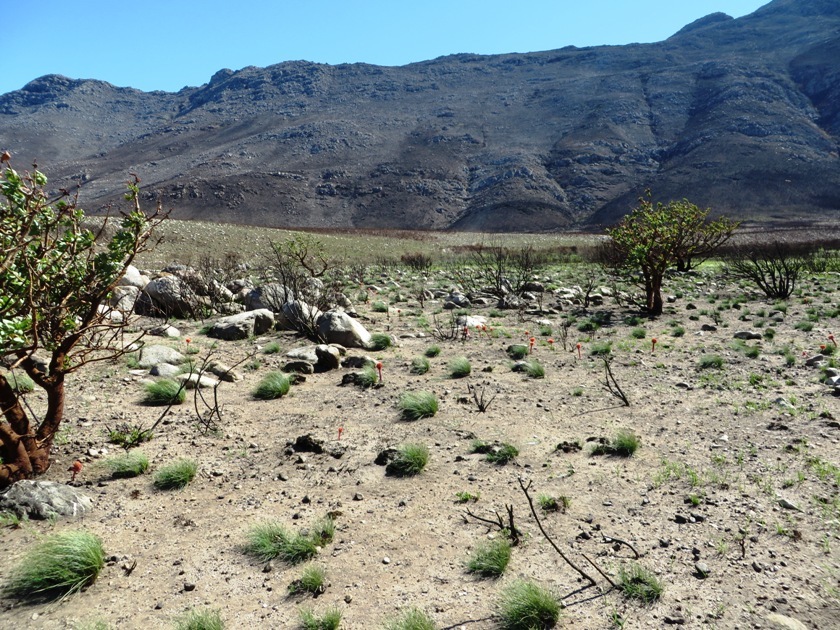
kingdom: Plantae
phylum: Tracheophyta
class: Liliopsida
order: Asparagales
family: Amaryllidaceae
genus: Haemanthus
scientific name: Haemanthus sanguineus
